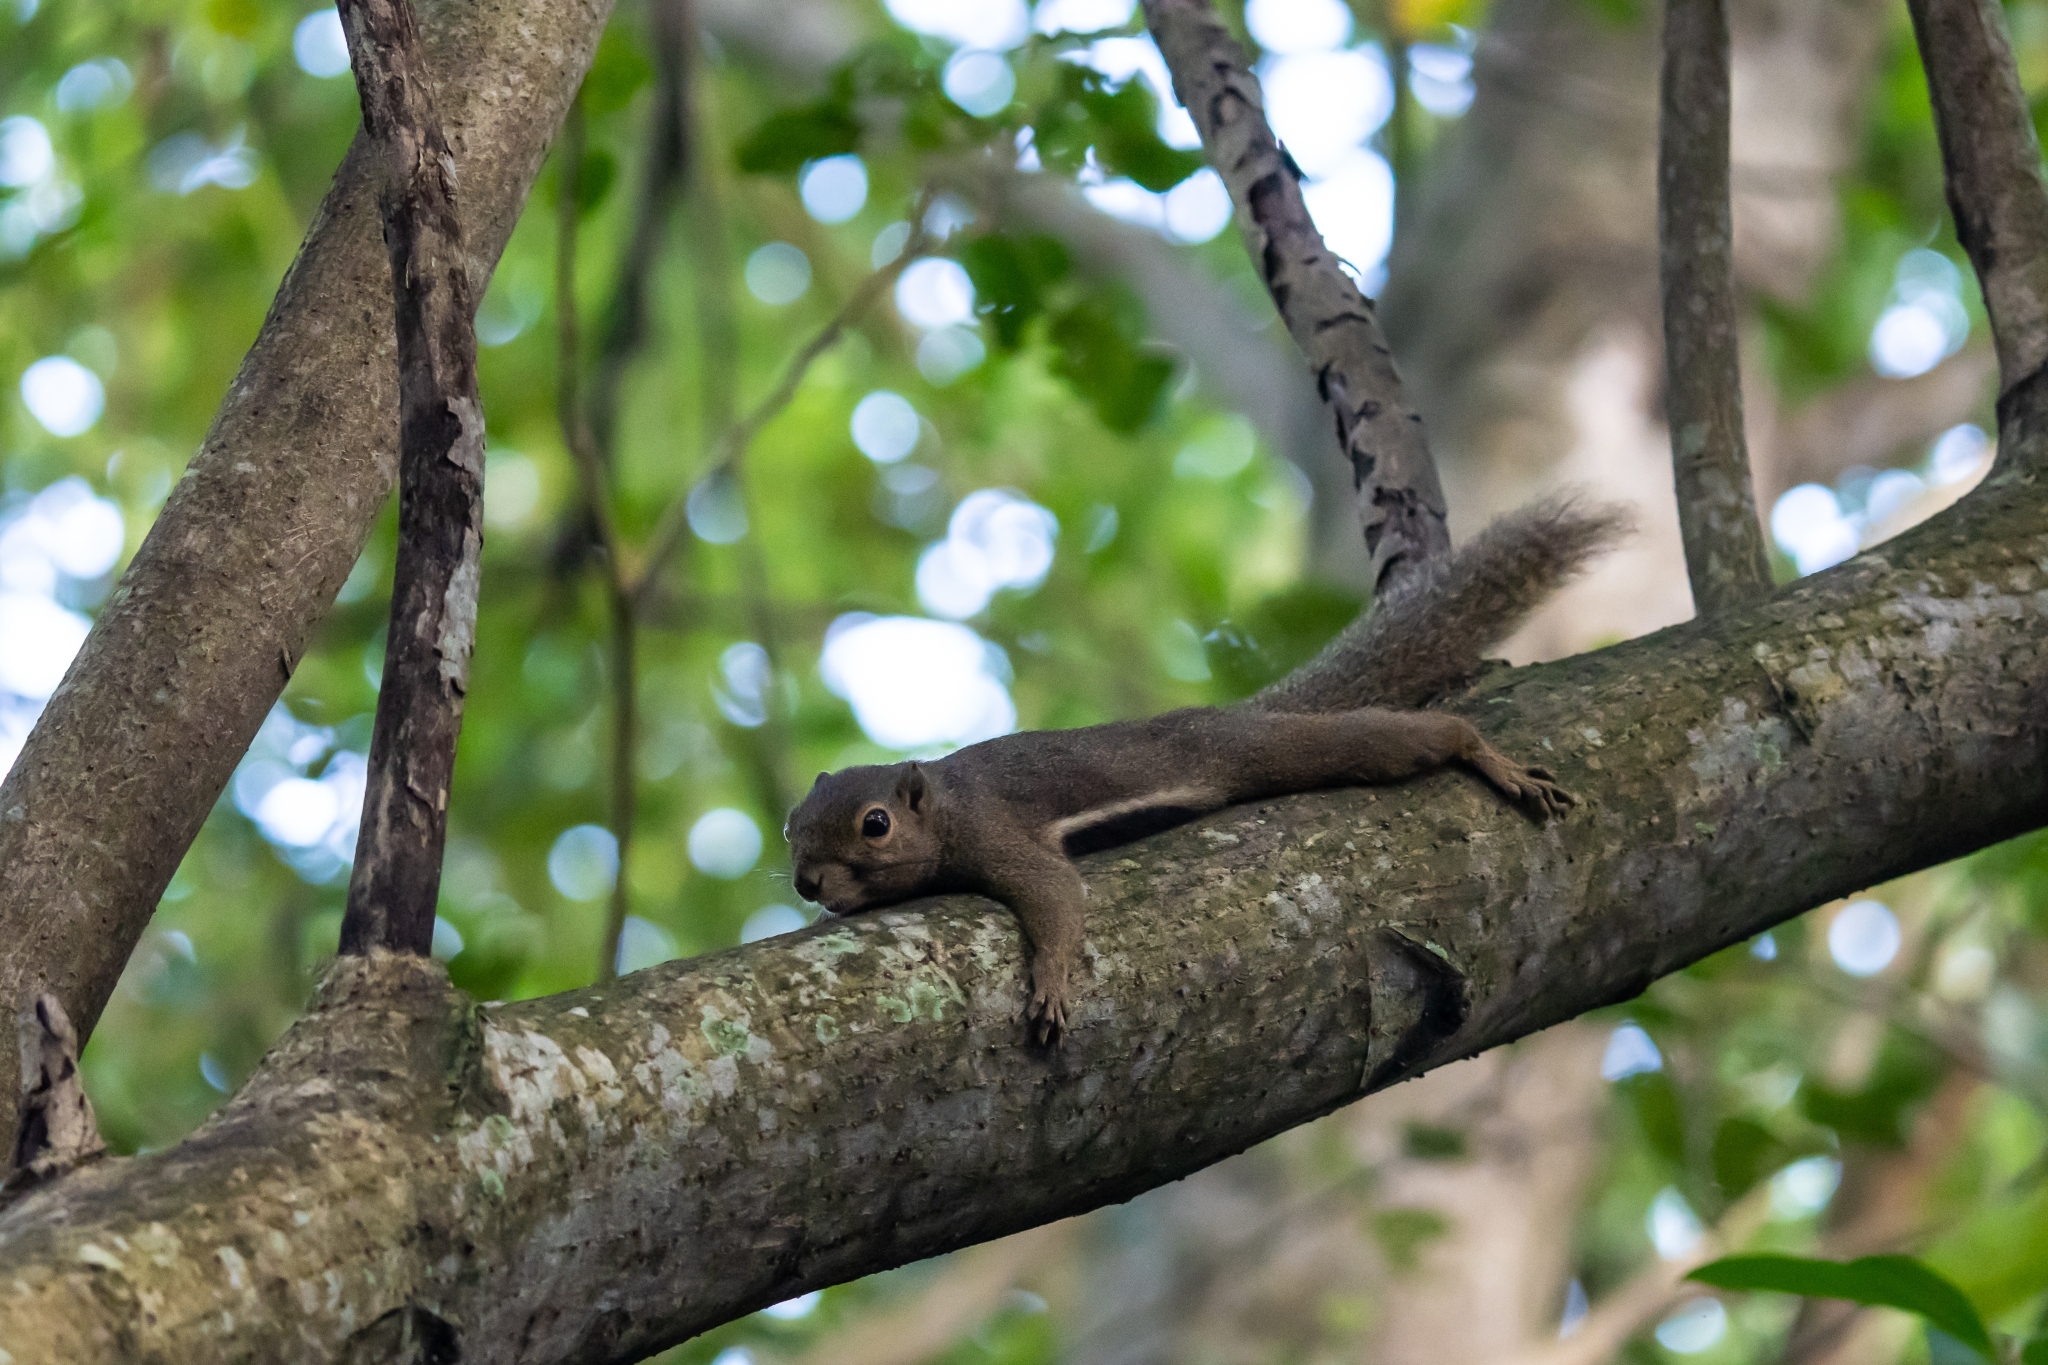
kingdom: Animalia
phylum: Chordata
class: Mammalia
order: Rodentia
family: Sciuridae
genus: Callosciurus
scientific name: Callosciurus notatus
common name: Plantain squirrel
